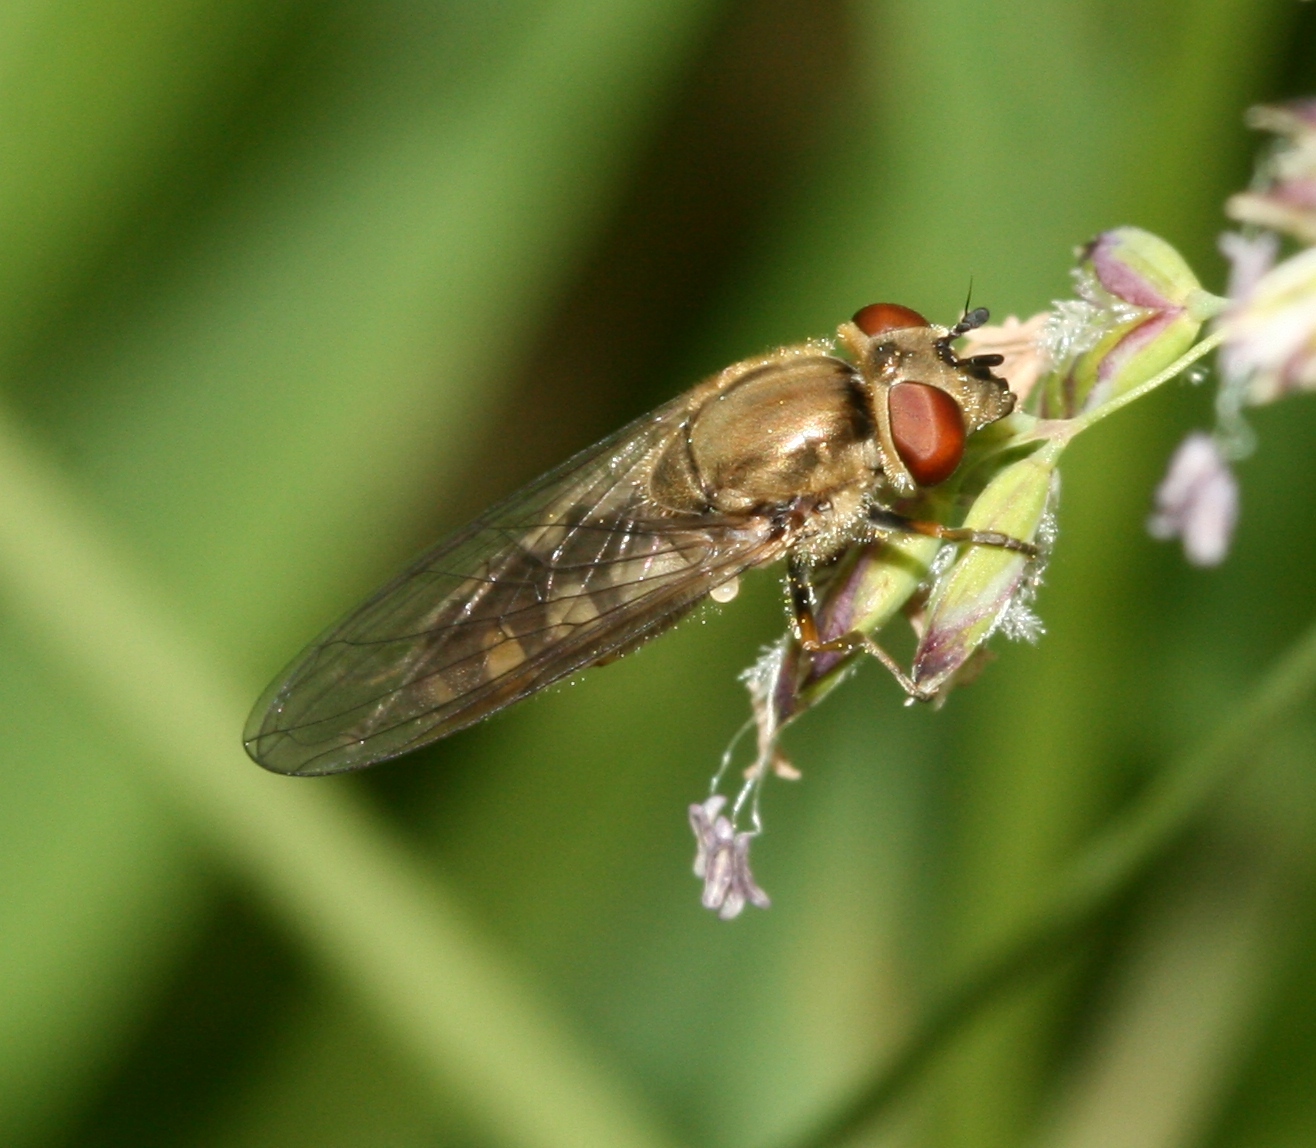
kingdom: Animalia
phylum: Arthropoda
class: Insecta
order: Diptera
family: Syrphidae
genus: Platycheirus
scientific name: Platycheirus manicatus
